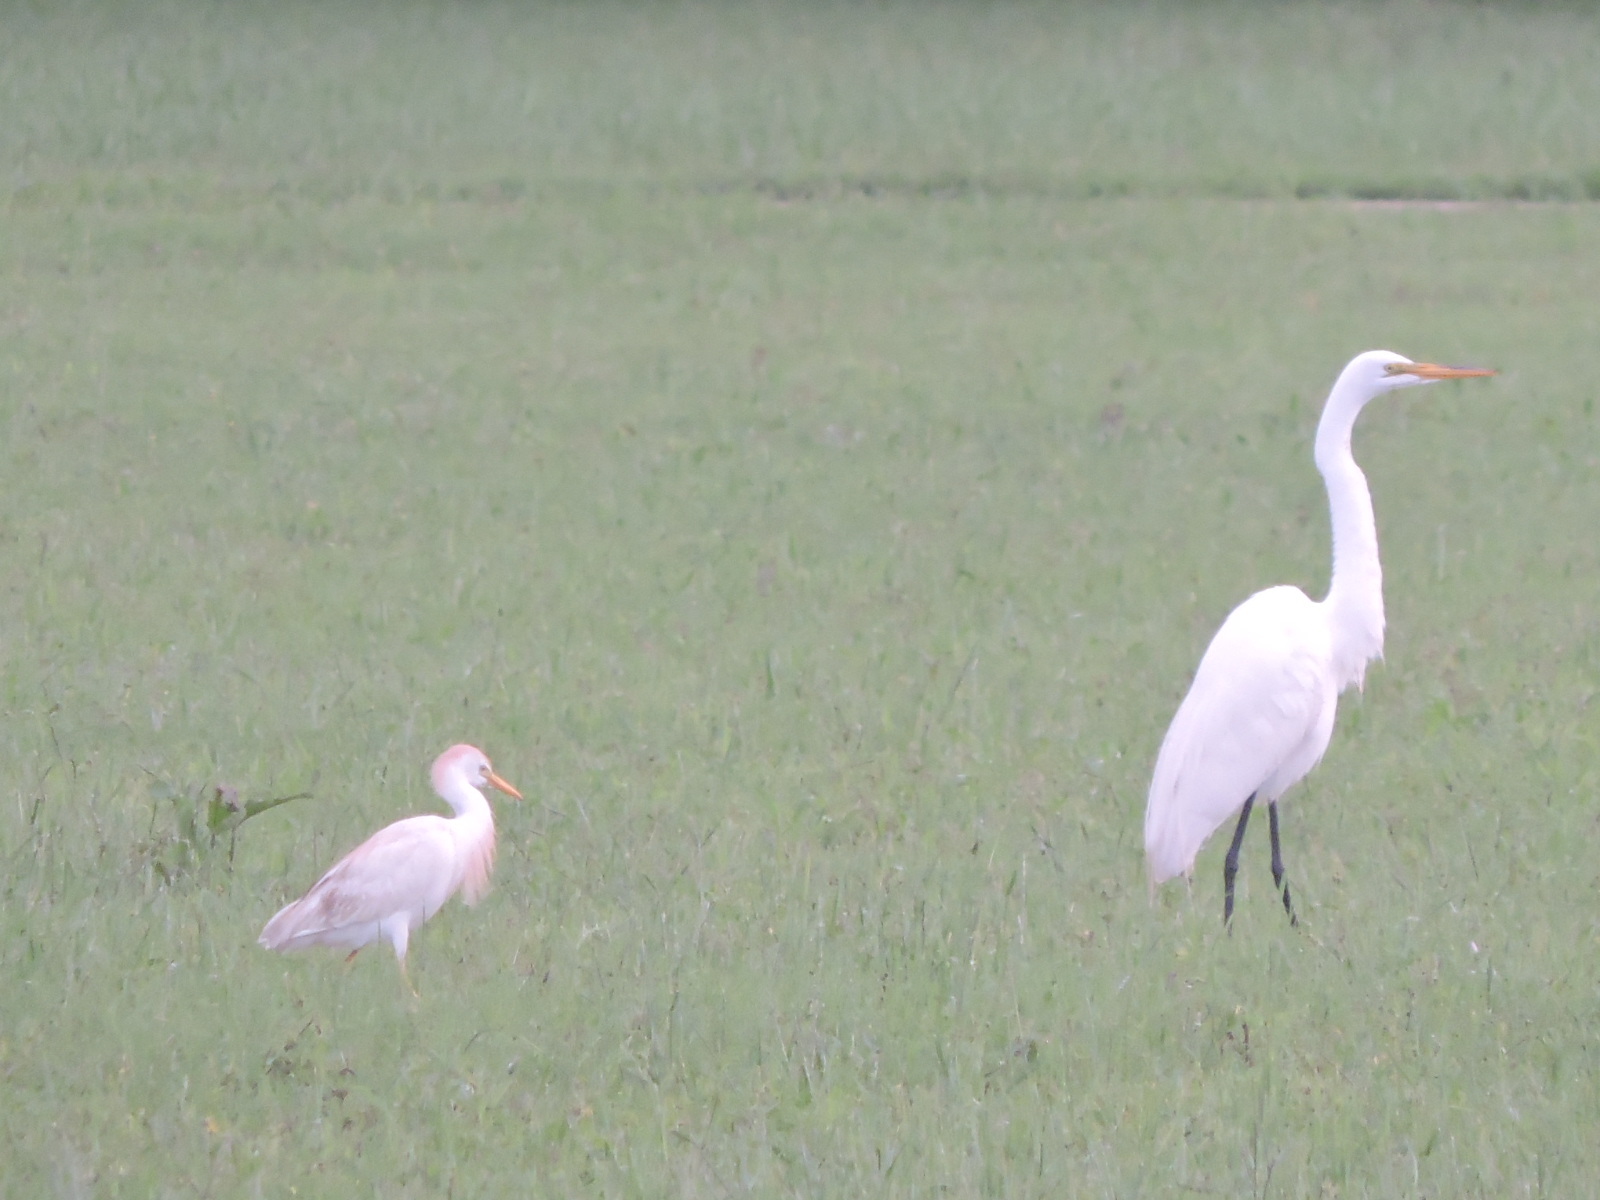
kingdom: Animalia
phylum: Chordata
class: Aves
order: Pelecaniformes
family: Ardeidae
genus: Bubulcus
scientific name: Bubulcus ibis
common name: Cattle egret
